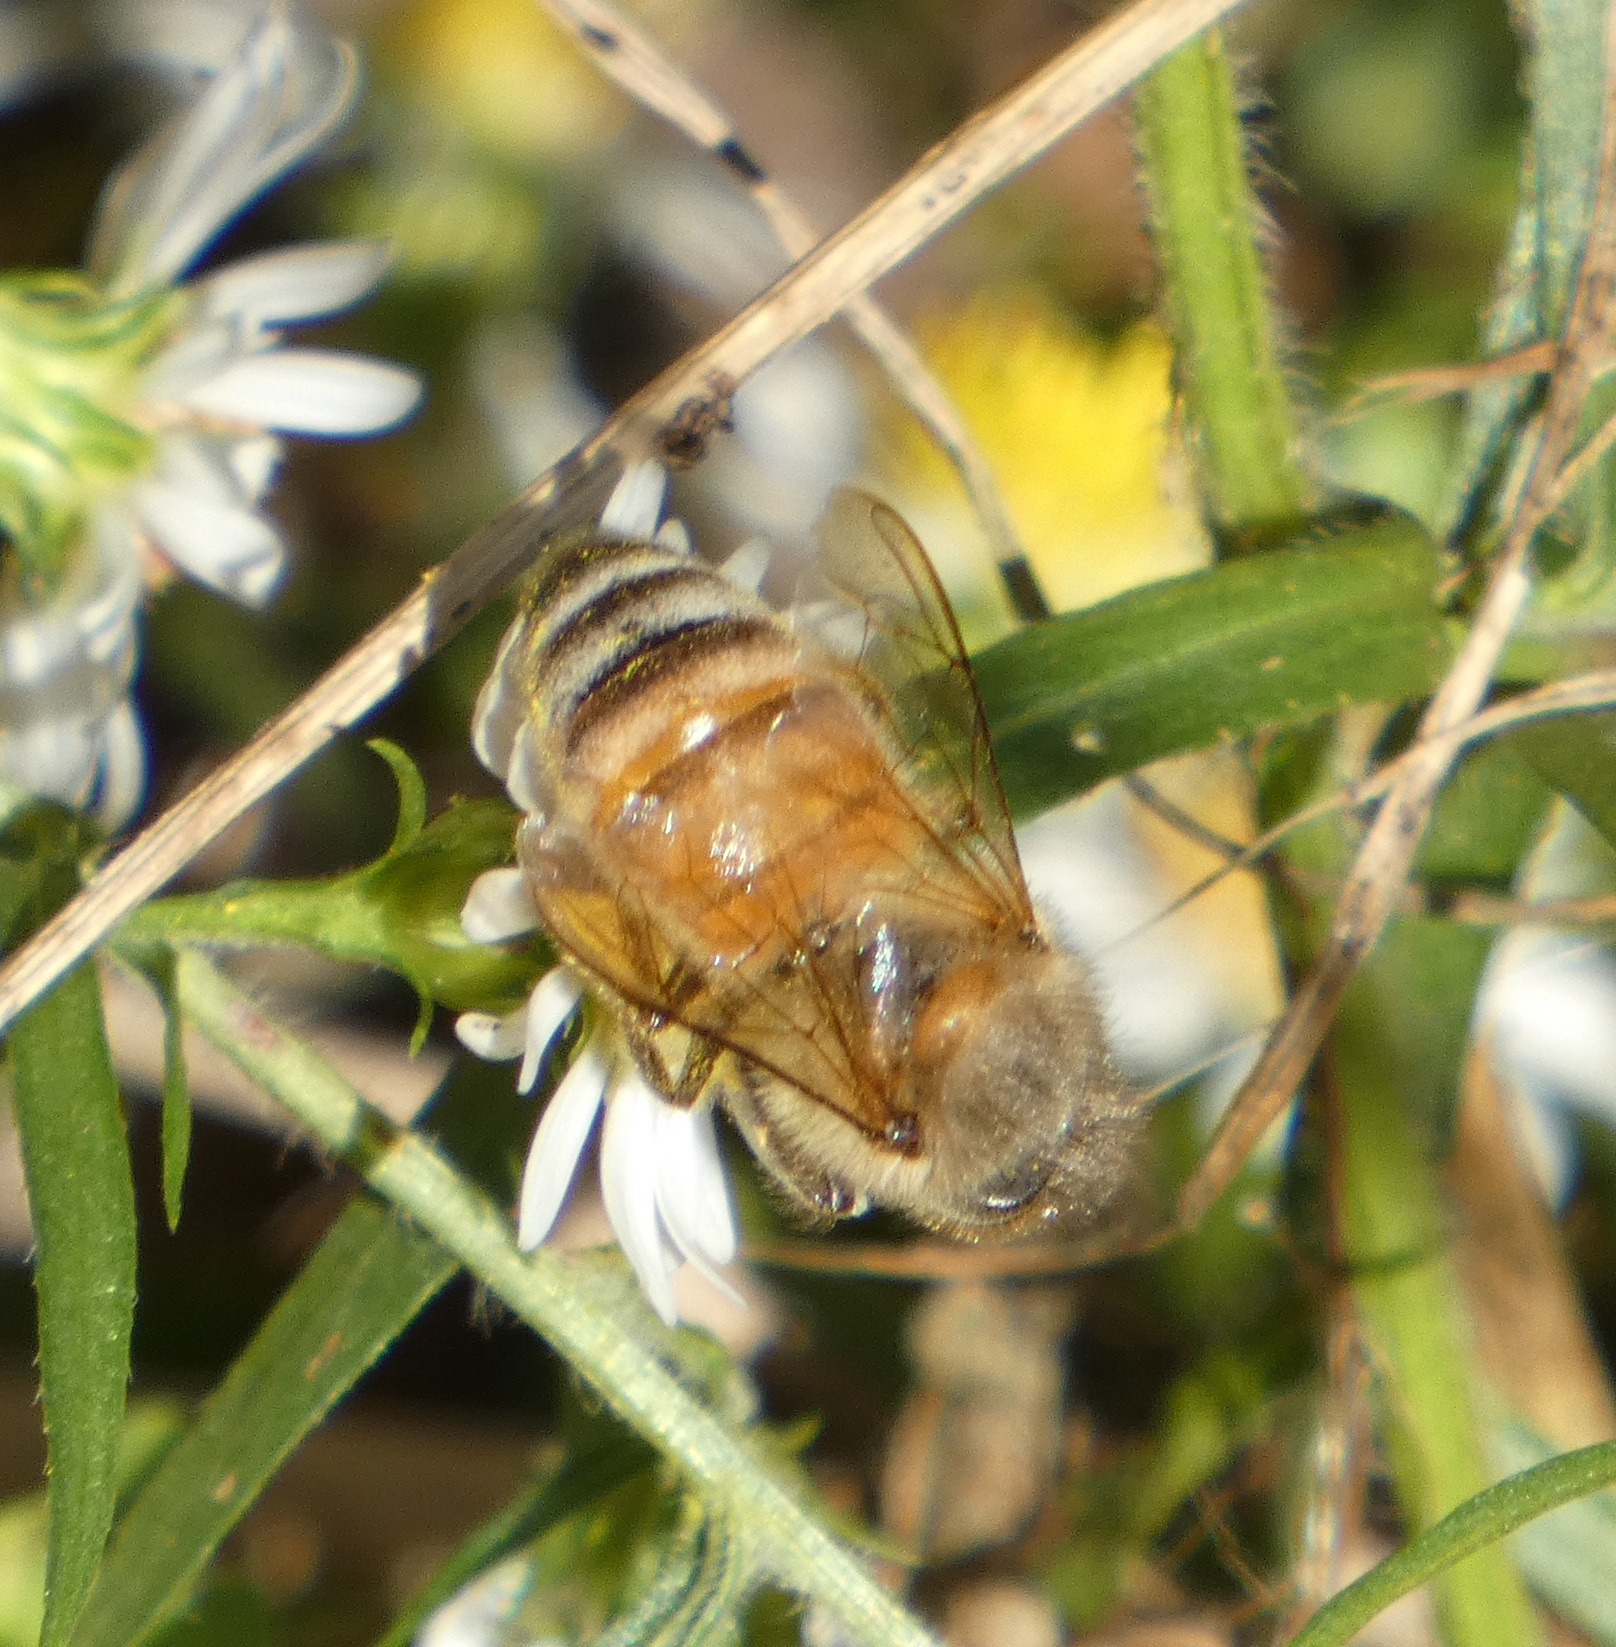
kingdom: Animalia
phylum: Arthropoda
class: Insecta
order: Hymenoptera
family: Apidae
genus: Apis
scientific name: Apis mellifera
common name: Honey bee
